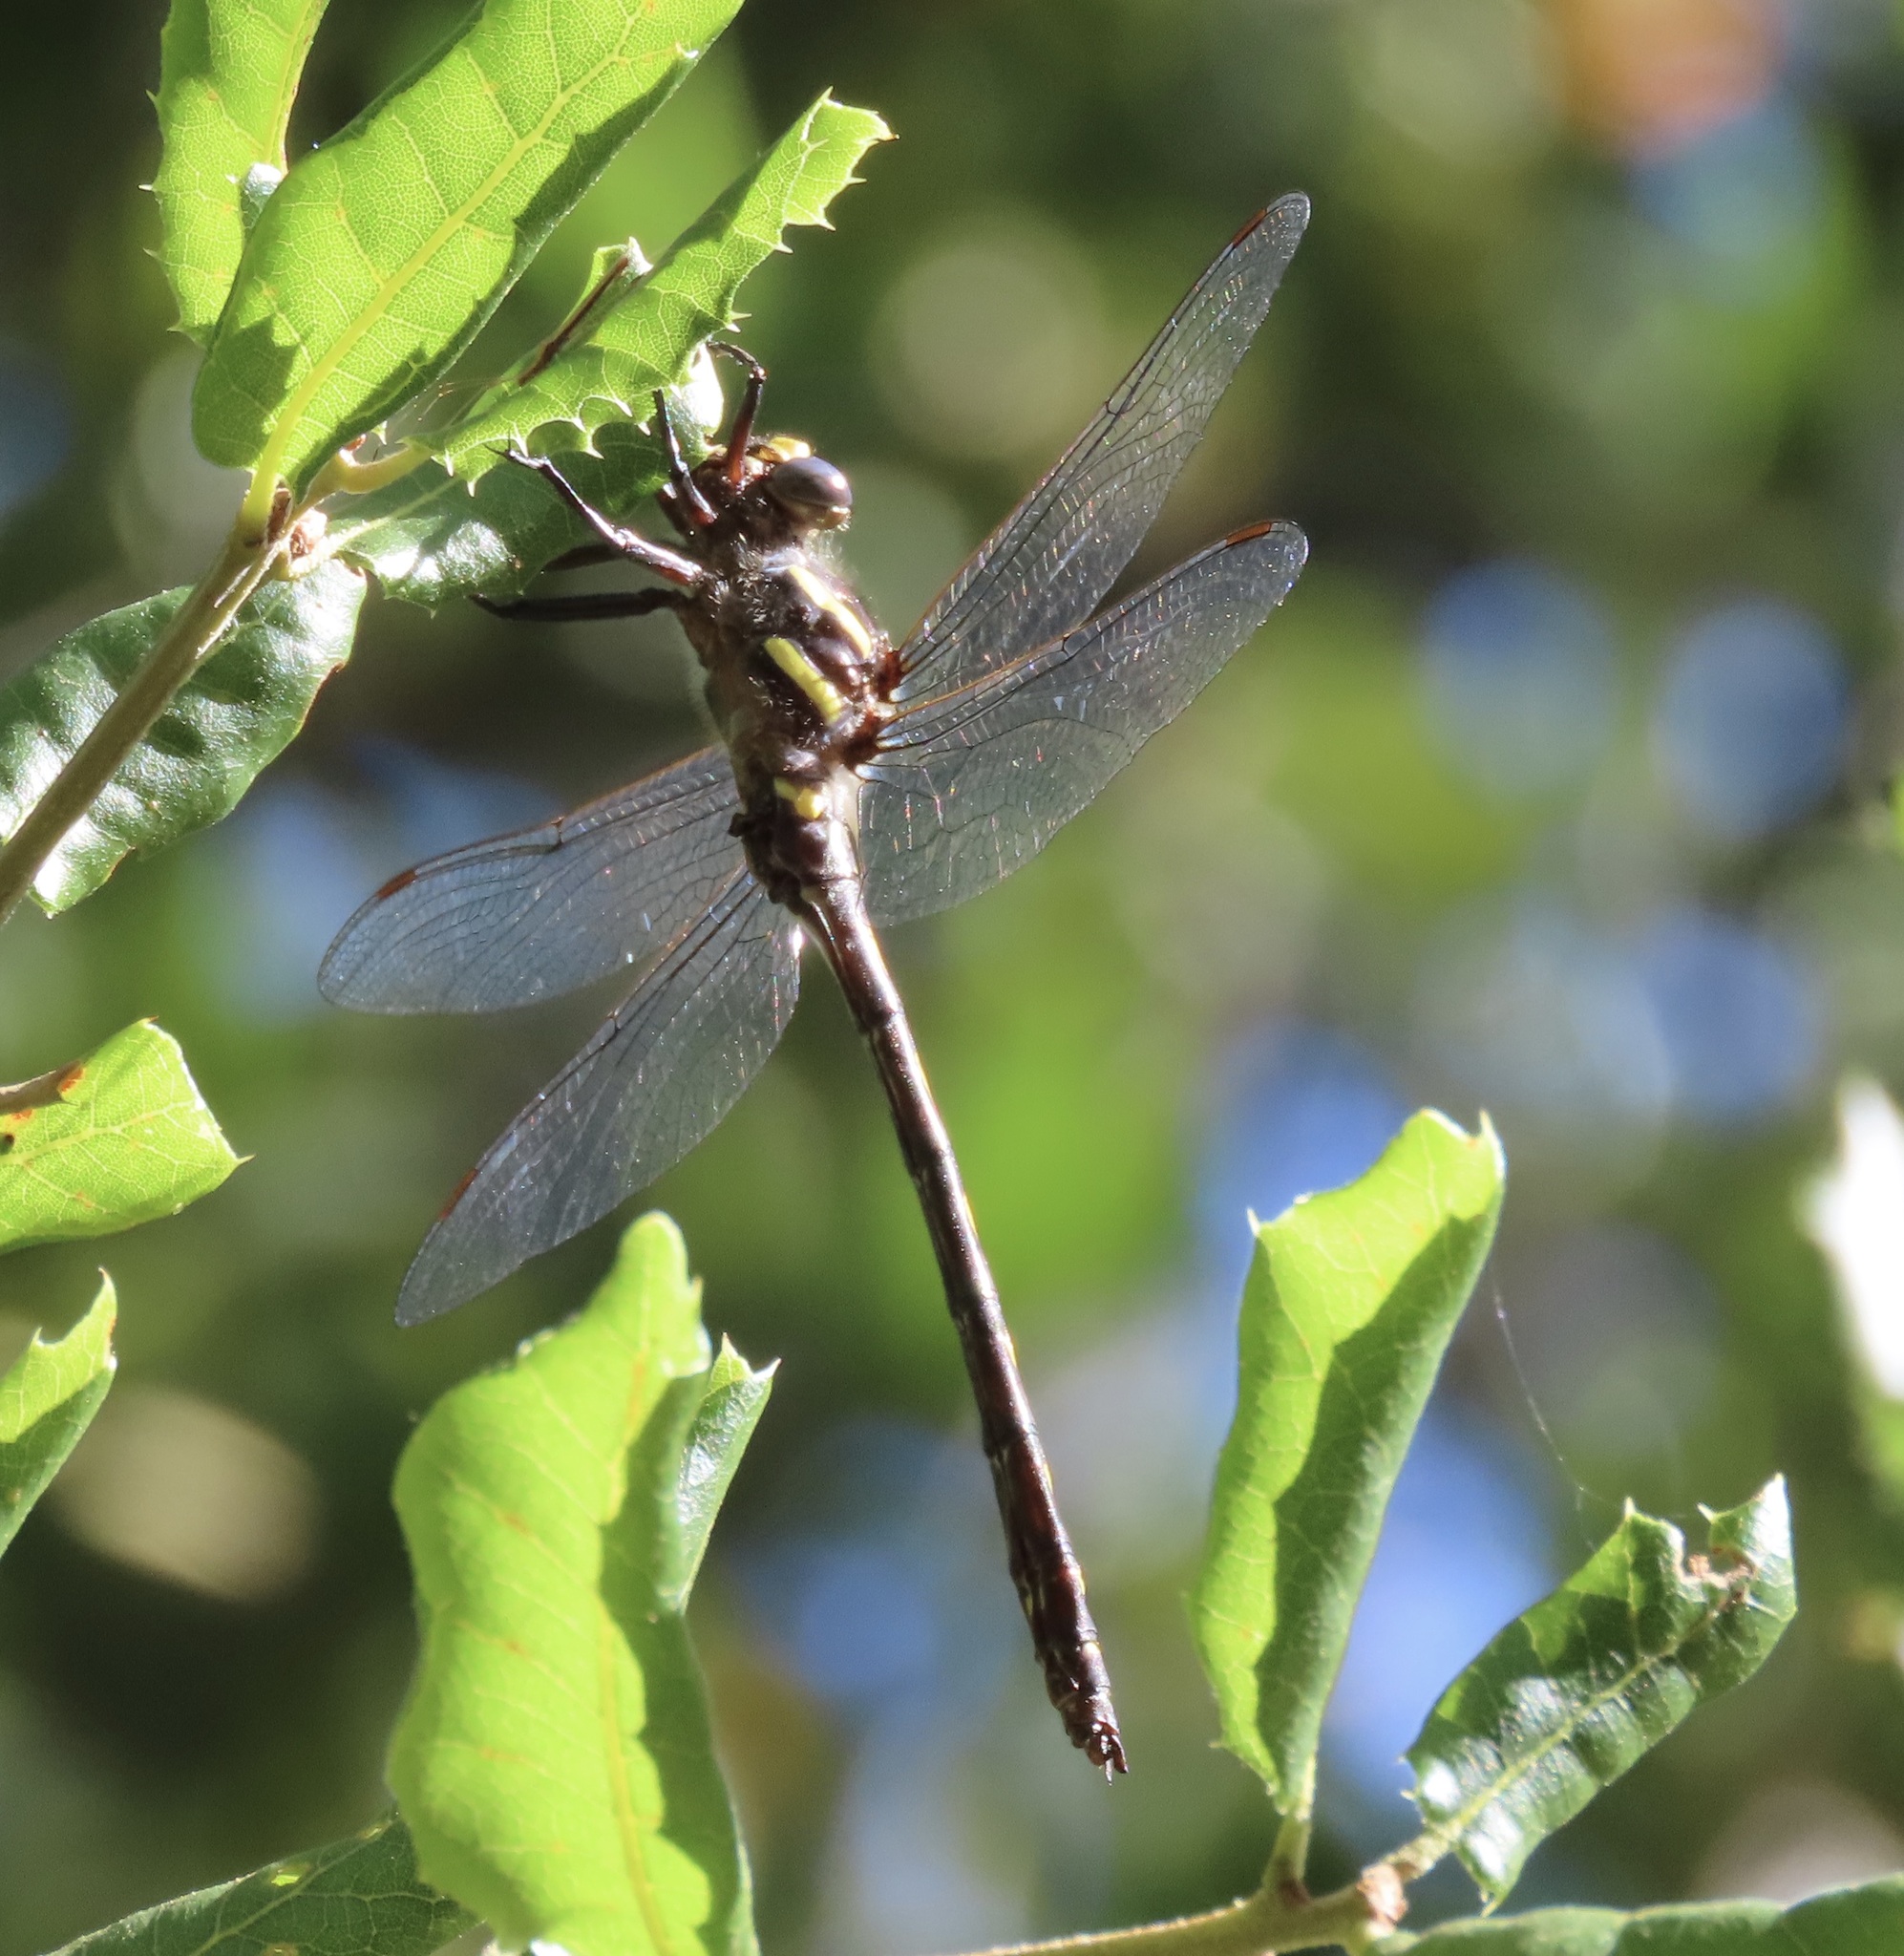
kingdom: Animalia
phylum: Arthropoda
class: Insecta
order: Odonata
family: Cordulegastridae
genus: Cordulegaster
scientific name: Cordulegaster dorsalis
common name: Pacific spiketail
